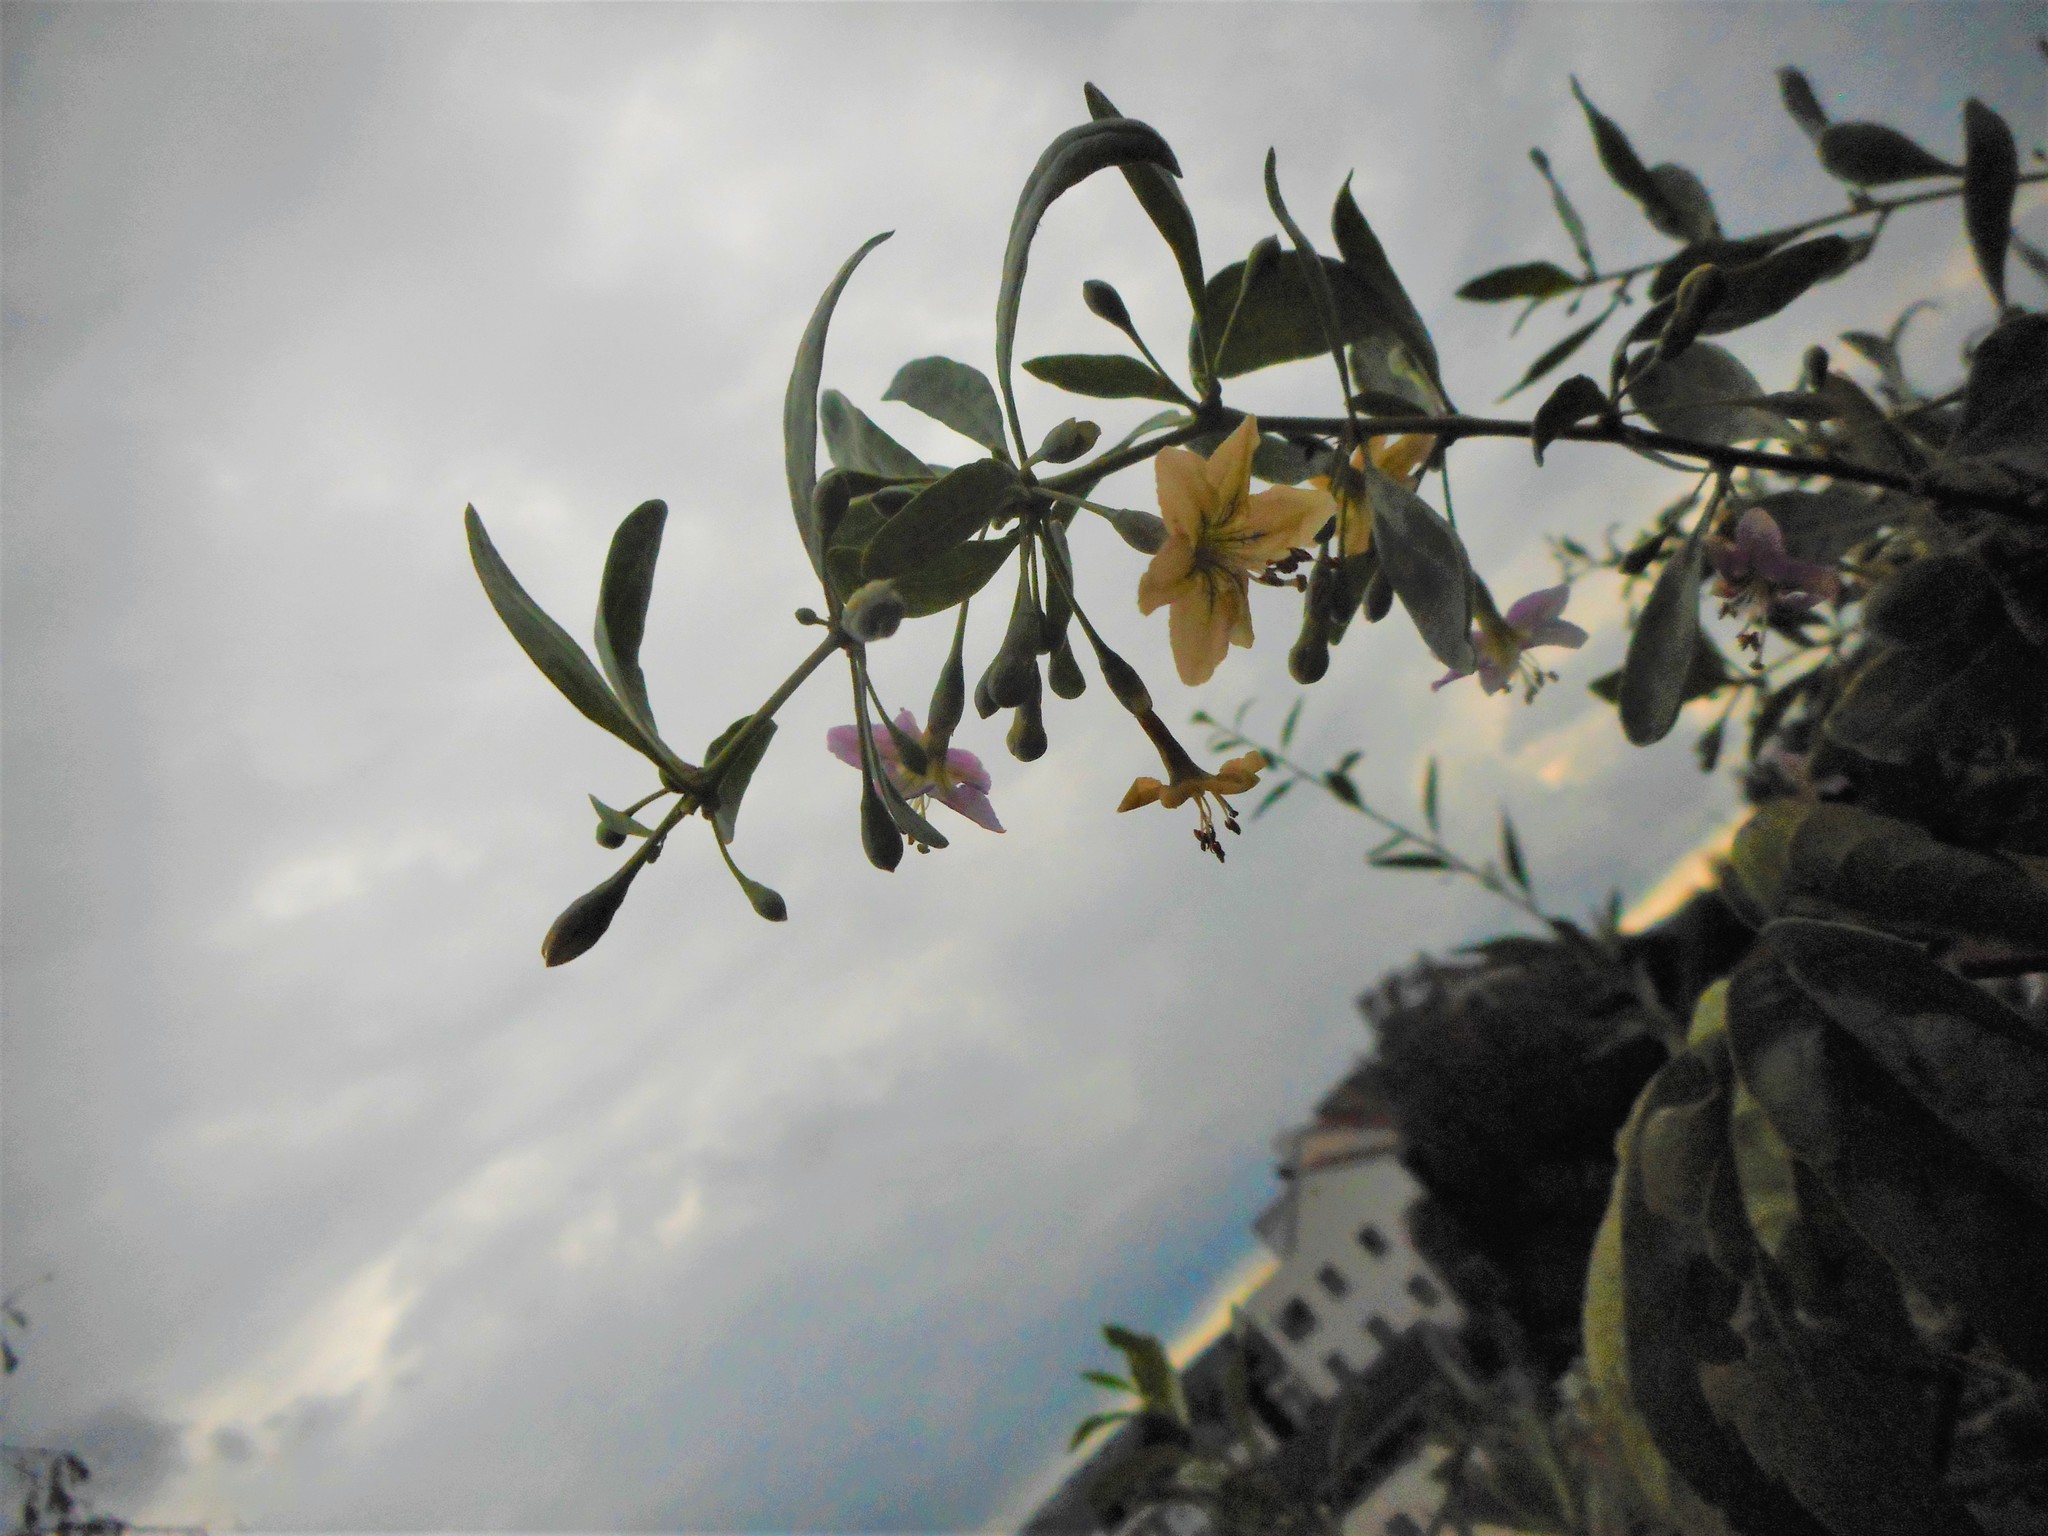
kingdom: Plantae
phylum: Tracheophyta
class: Magnoliopsida
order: Solanales
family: Solanaceae
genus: Lycium
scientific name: Lycium barbarum
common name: Duke of argyll's teaplant
